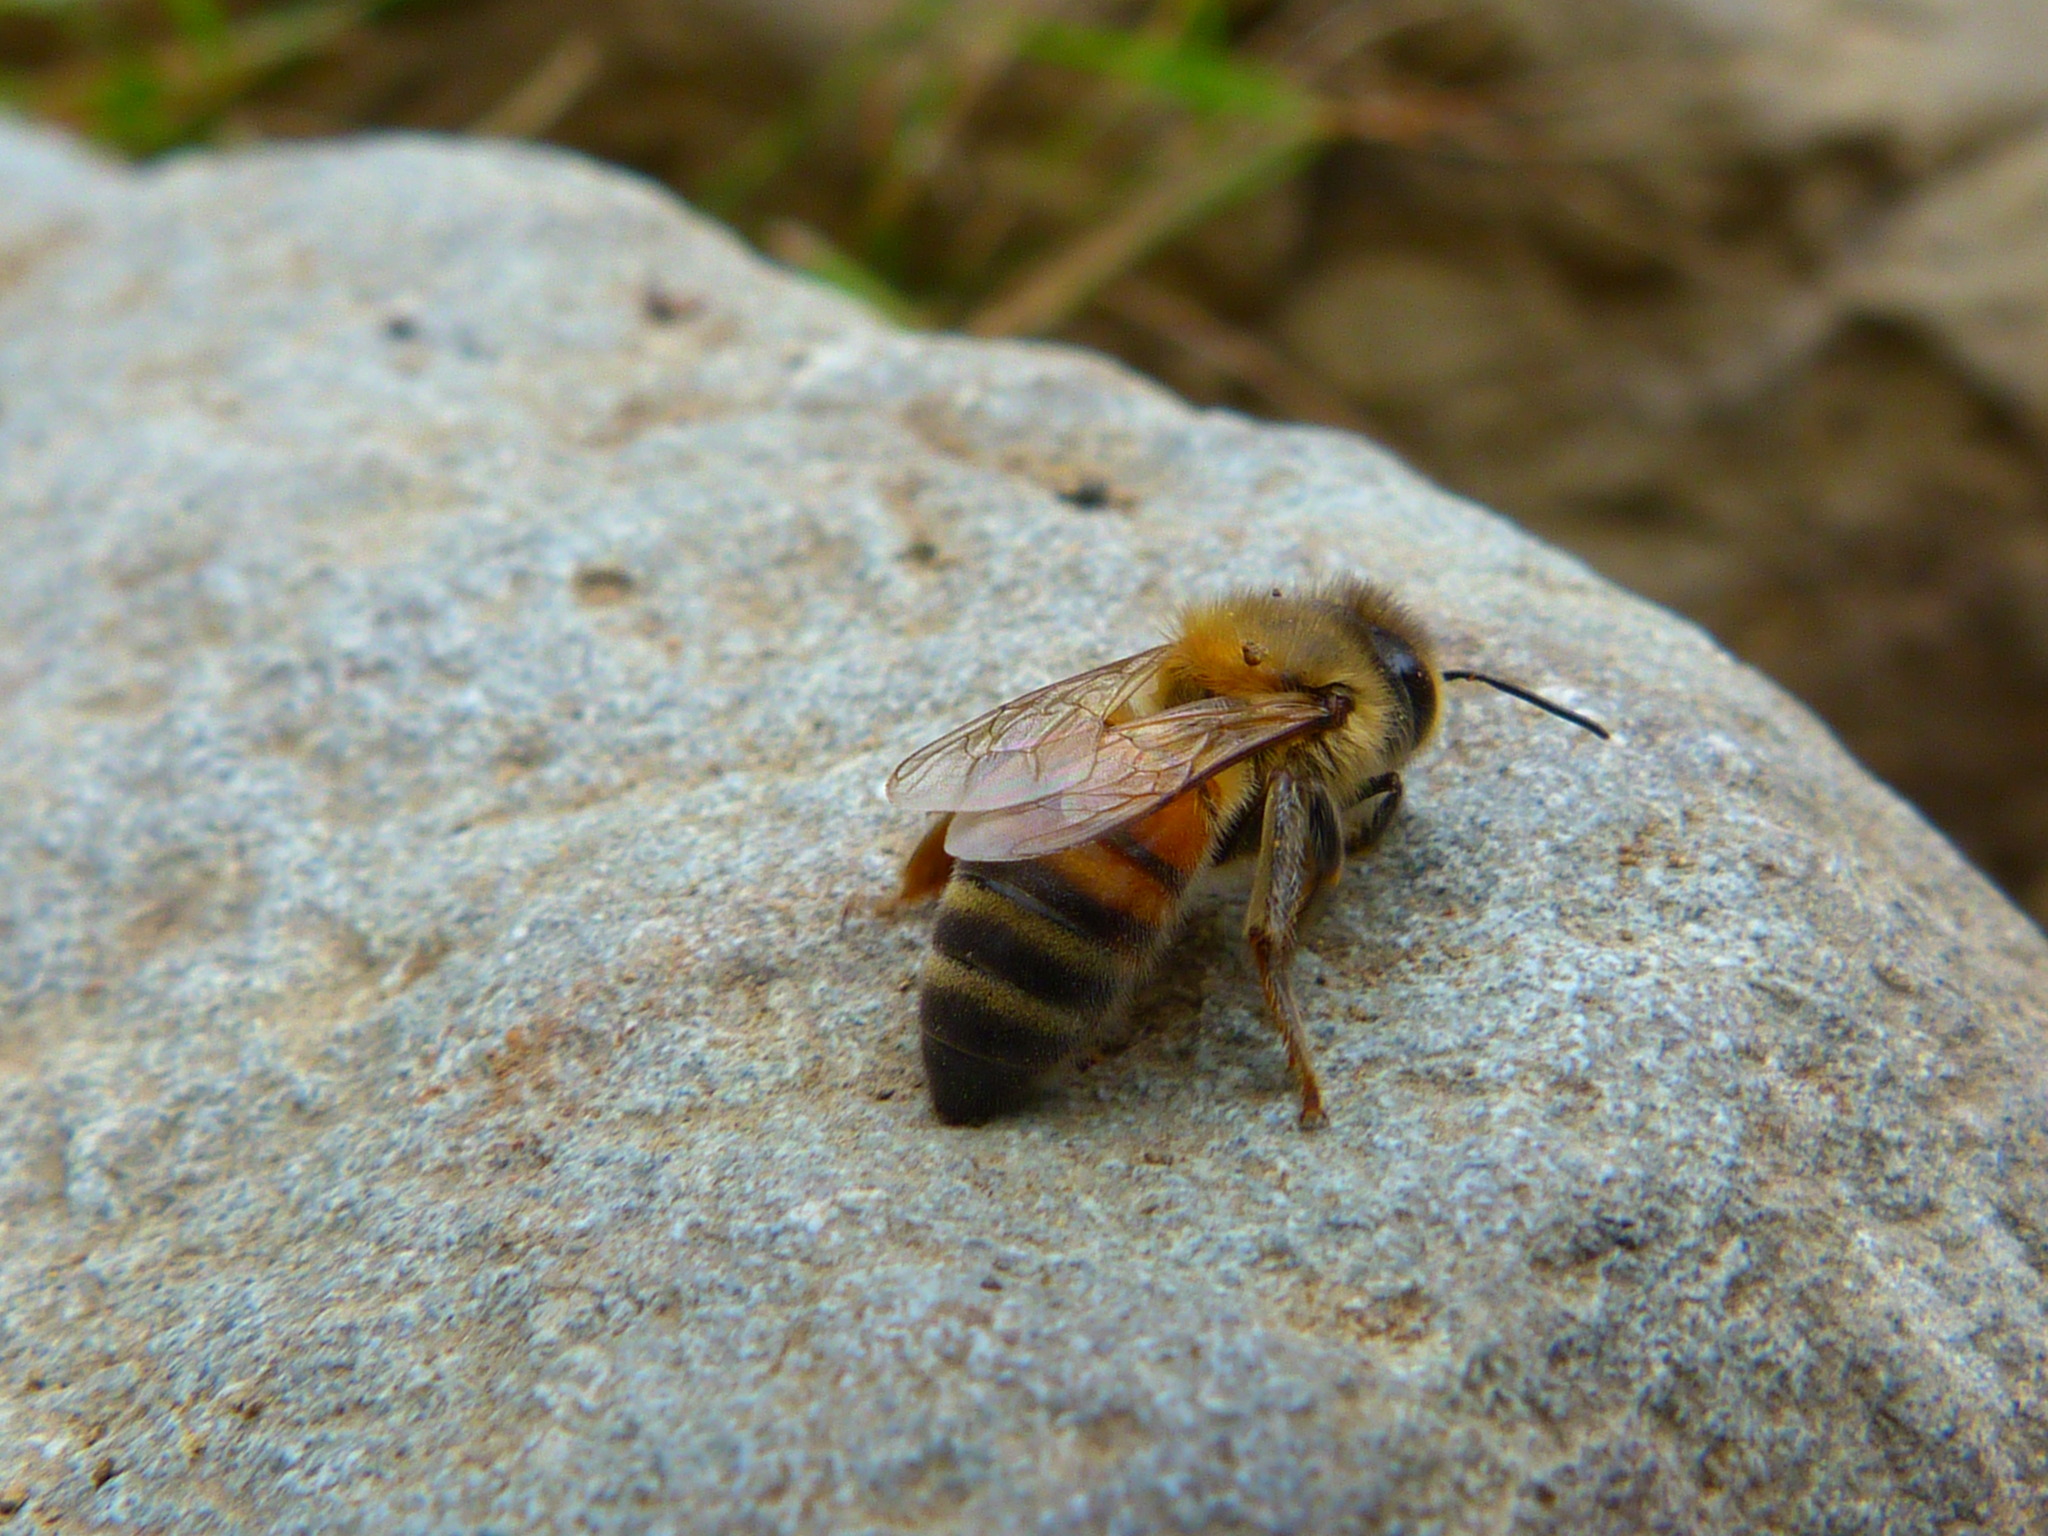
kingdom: Animalia
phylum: Arthropoda
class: Insecta
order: Hymenoptera
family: Apidae
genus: Apis
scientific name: Apis mellifera
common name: Honey bee
